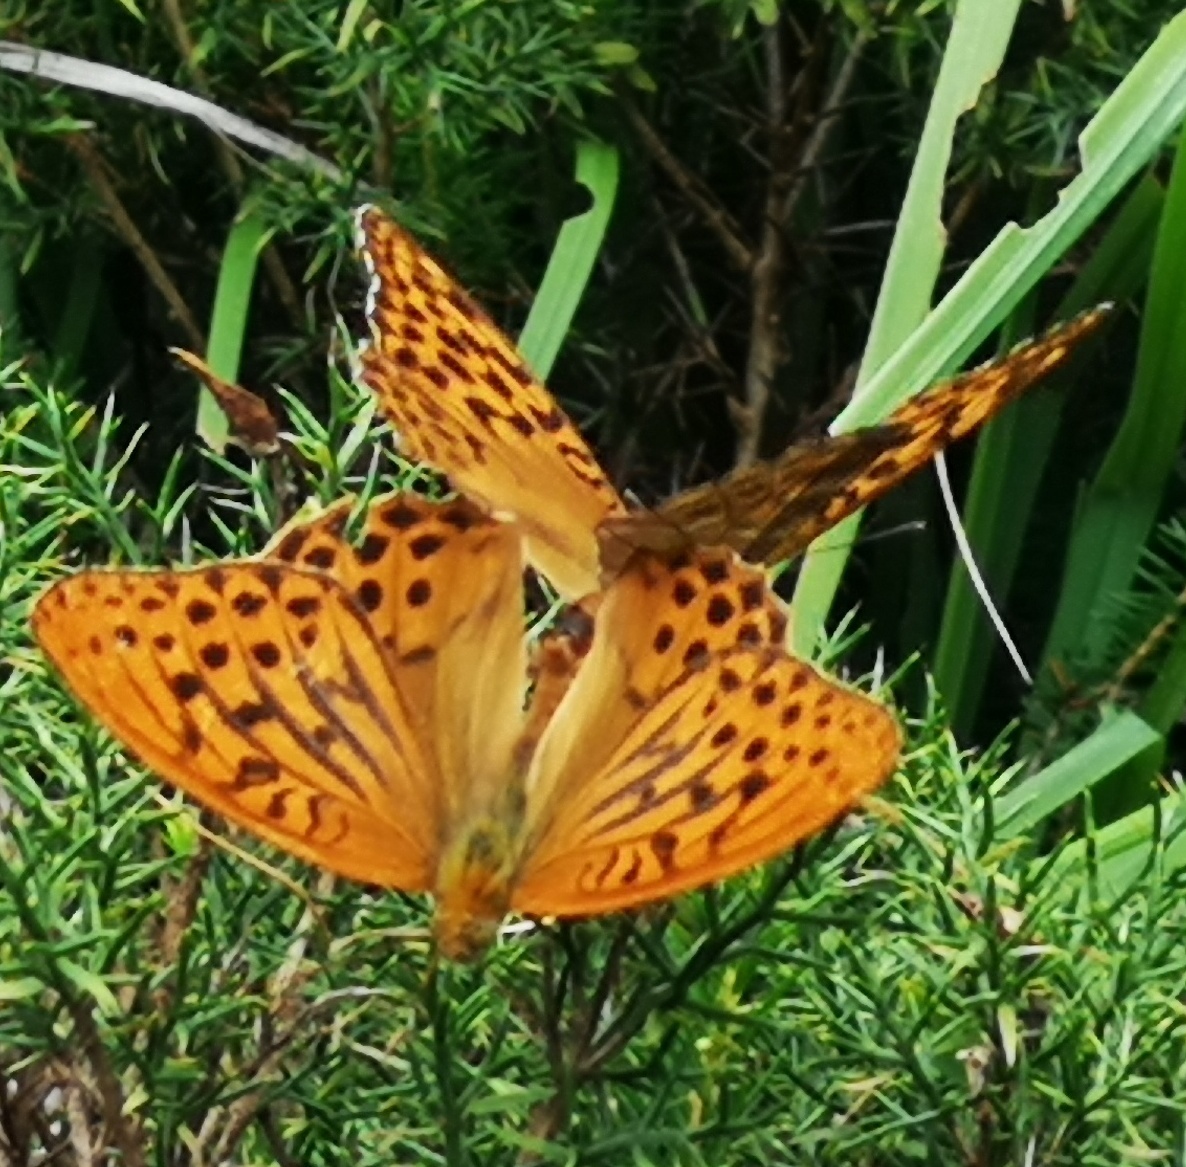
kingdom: Animalia
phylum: Arthropoda
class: Insecta
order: Lepidoptera
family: Nymphalidae
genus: Argynnis
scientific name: Argynnis paphia
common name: Silver-washed fritillary
